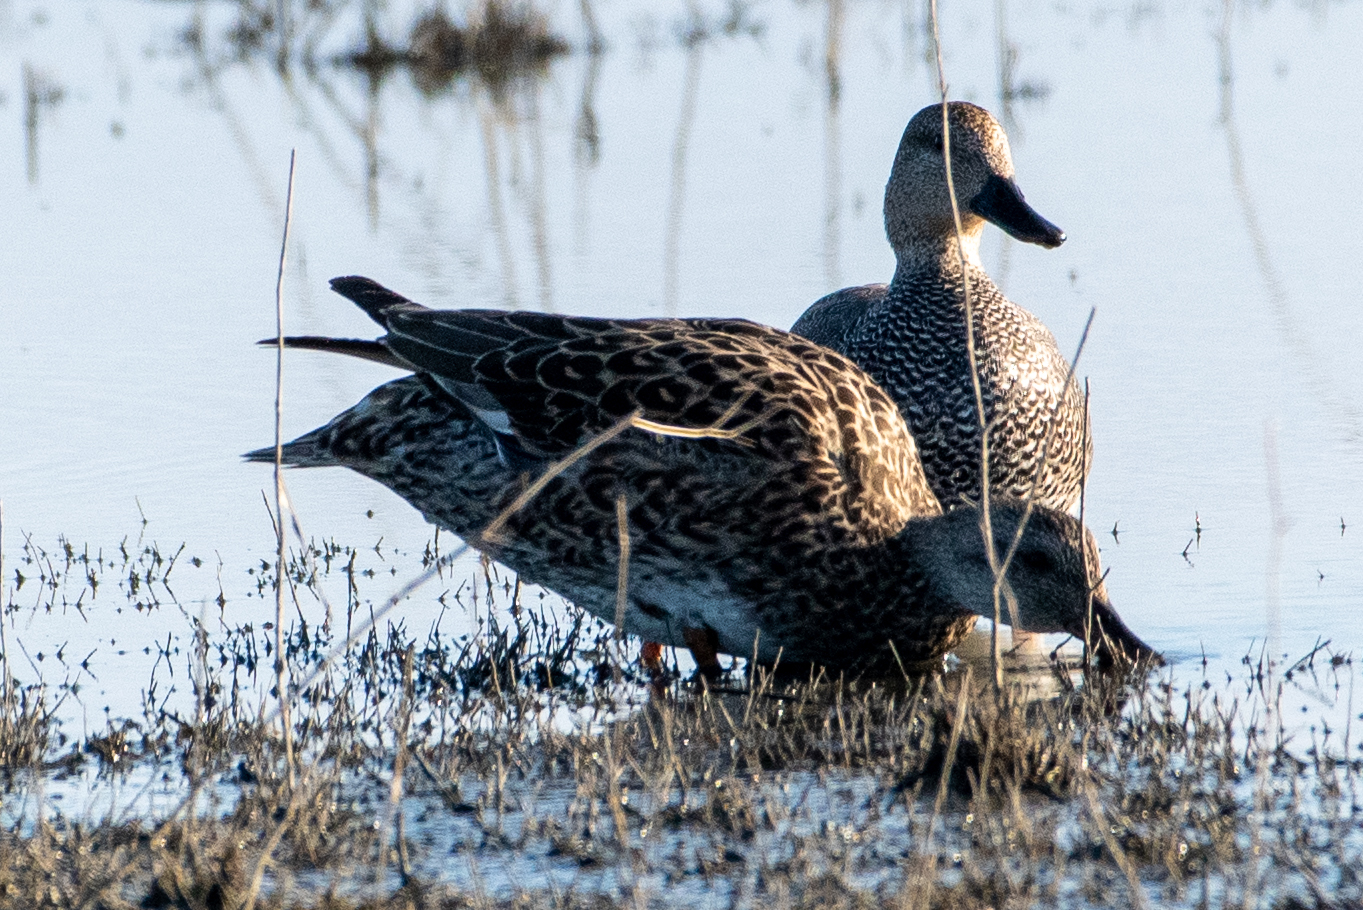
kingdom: Animalia
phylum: Chordata
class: Aves
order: Anseriformes
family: Anatidae
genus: Mareca
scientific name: Mareca strepera
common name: Gadwall
